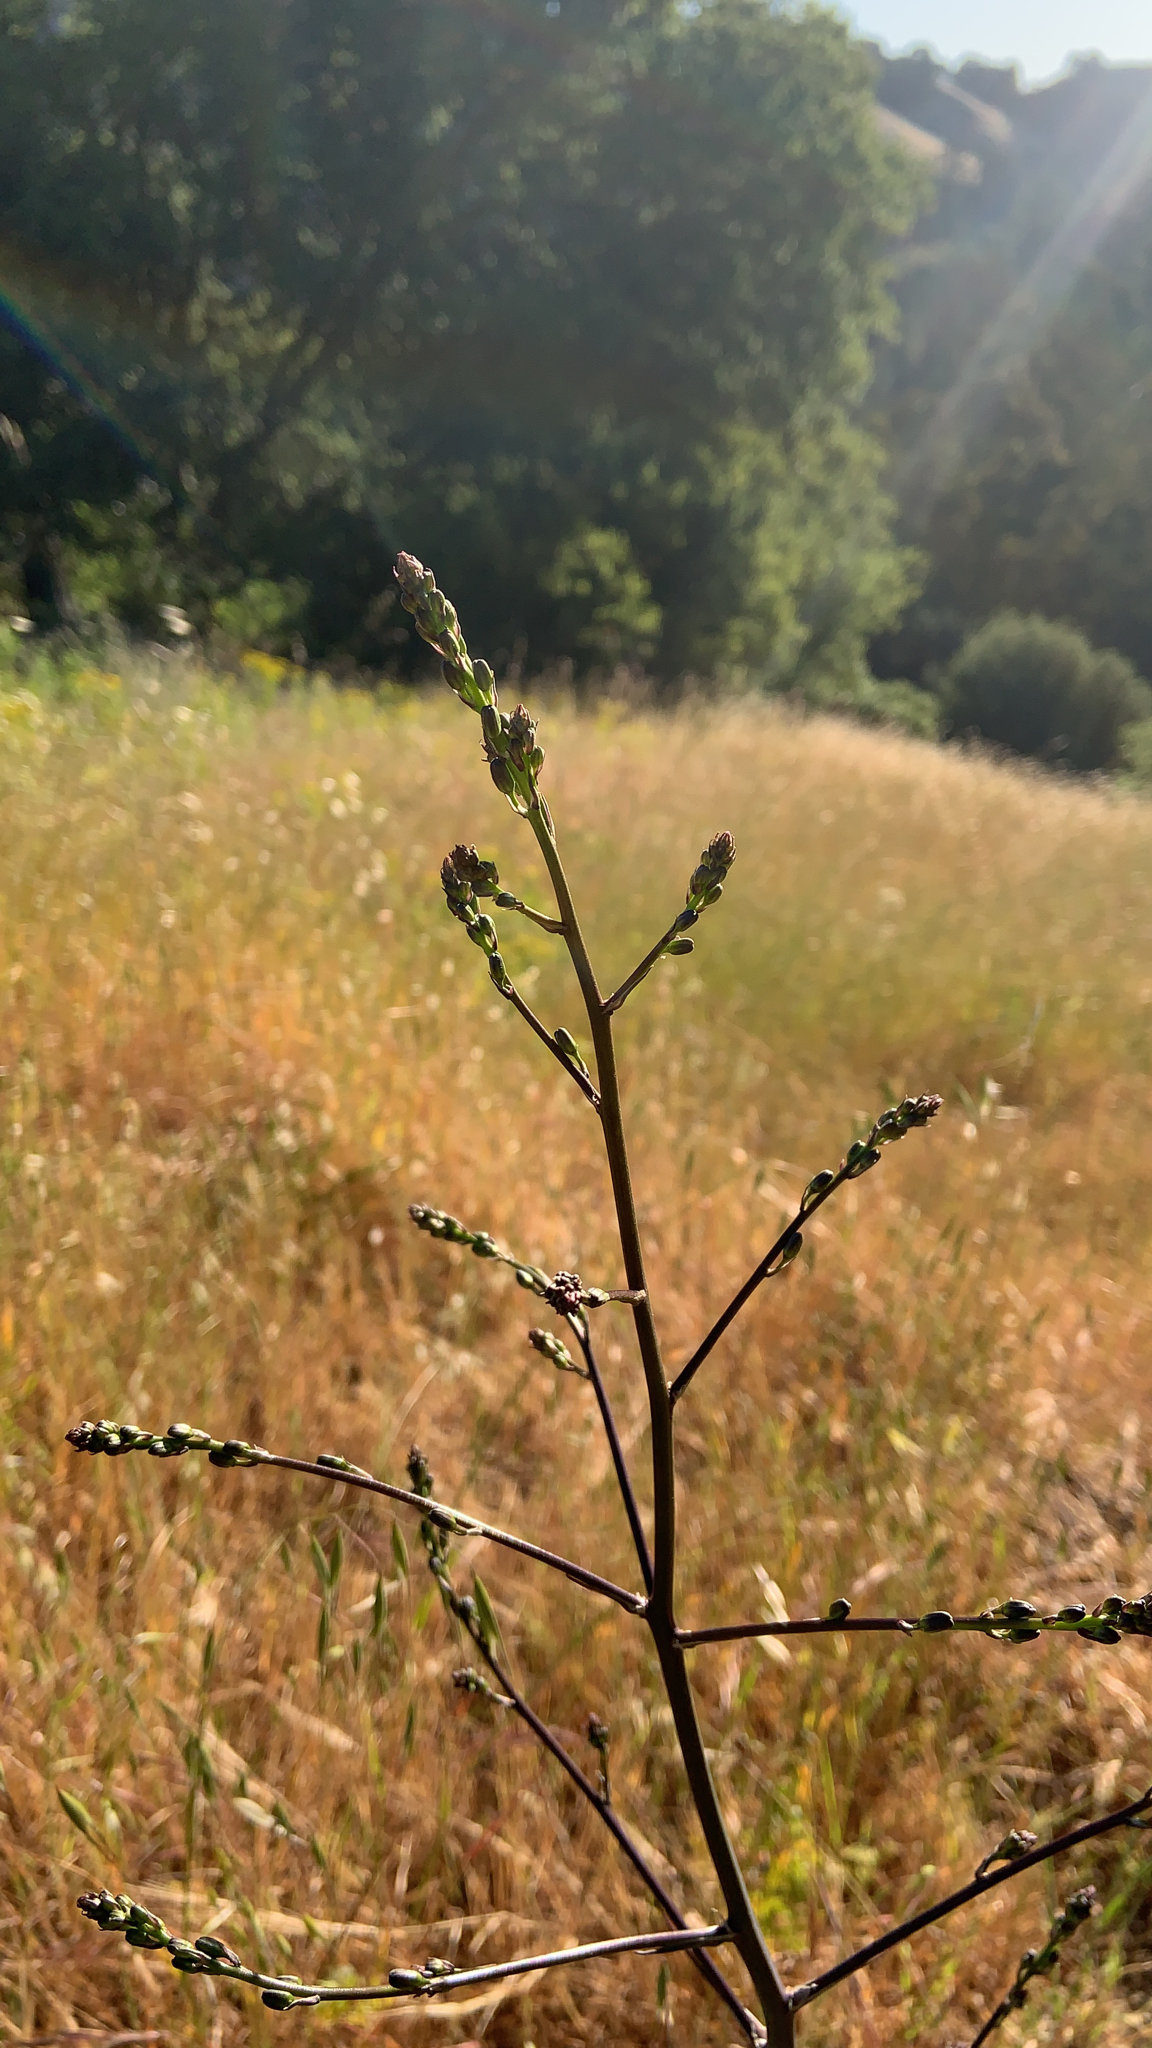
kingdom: Plantae
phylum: Tracheophyta
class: Liliopsida
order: Asparagales
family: Asparagaceae
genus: Chlorogalum
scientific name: Chlorogalum pomeridianum
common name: Amole
